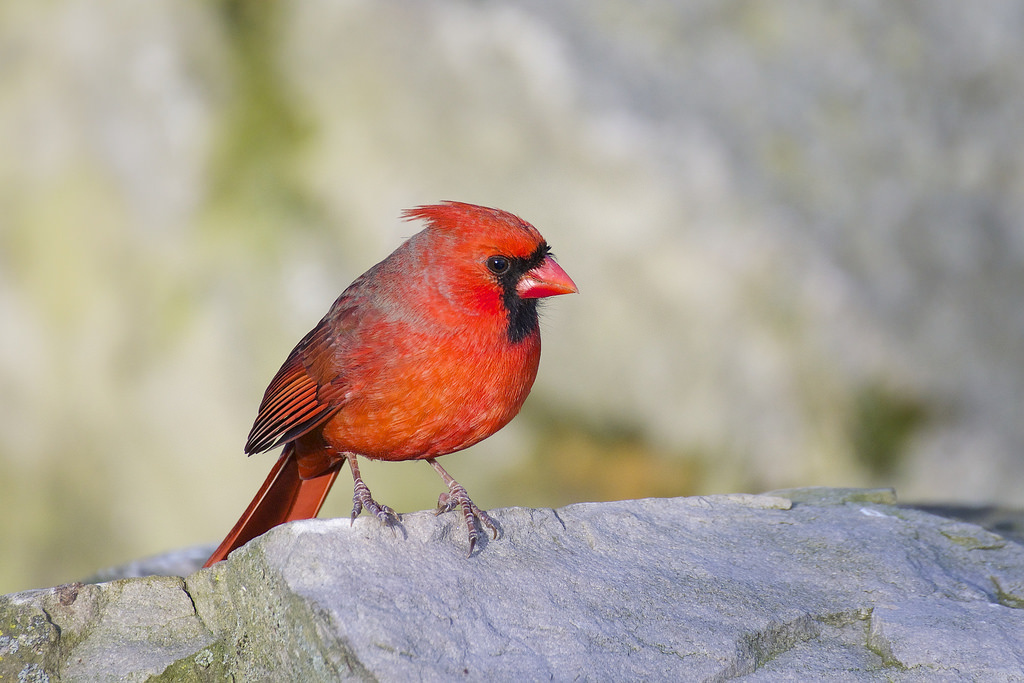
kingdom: Animalia
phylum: Chordata
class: Aves
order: Passeriformes
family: Cardinalidae
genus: Cardinalis
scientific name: Cardinalis cardinalis
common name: Northern cardinal
